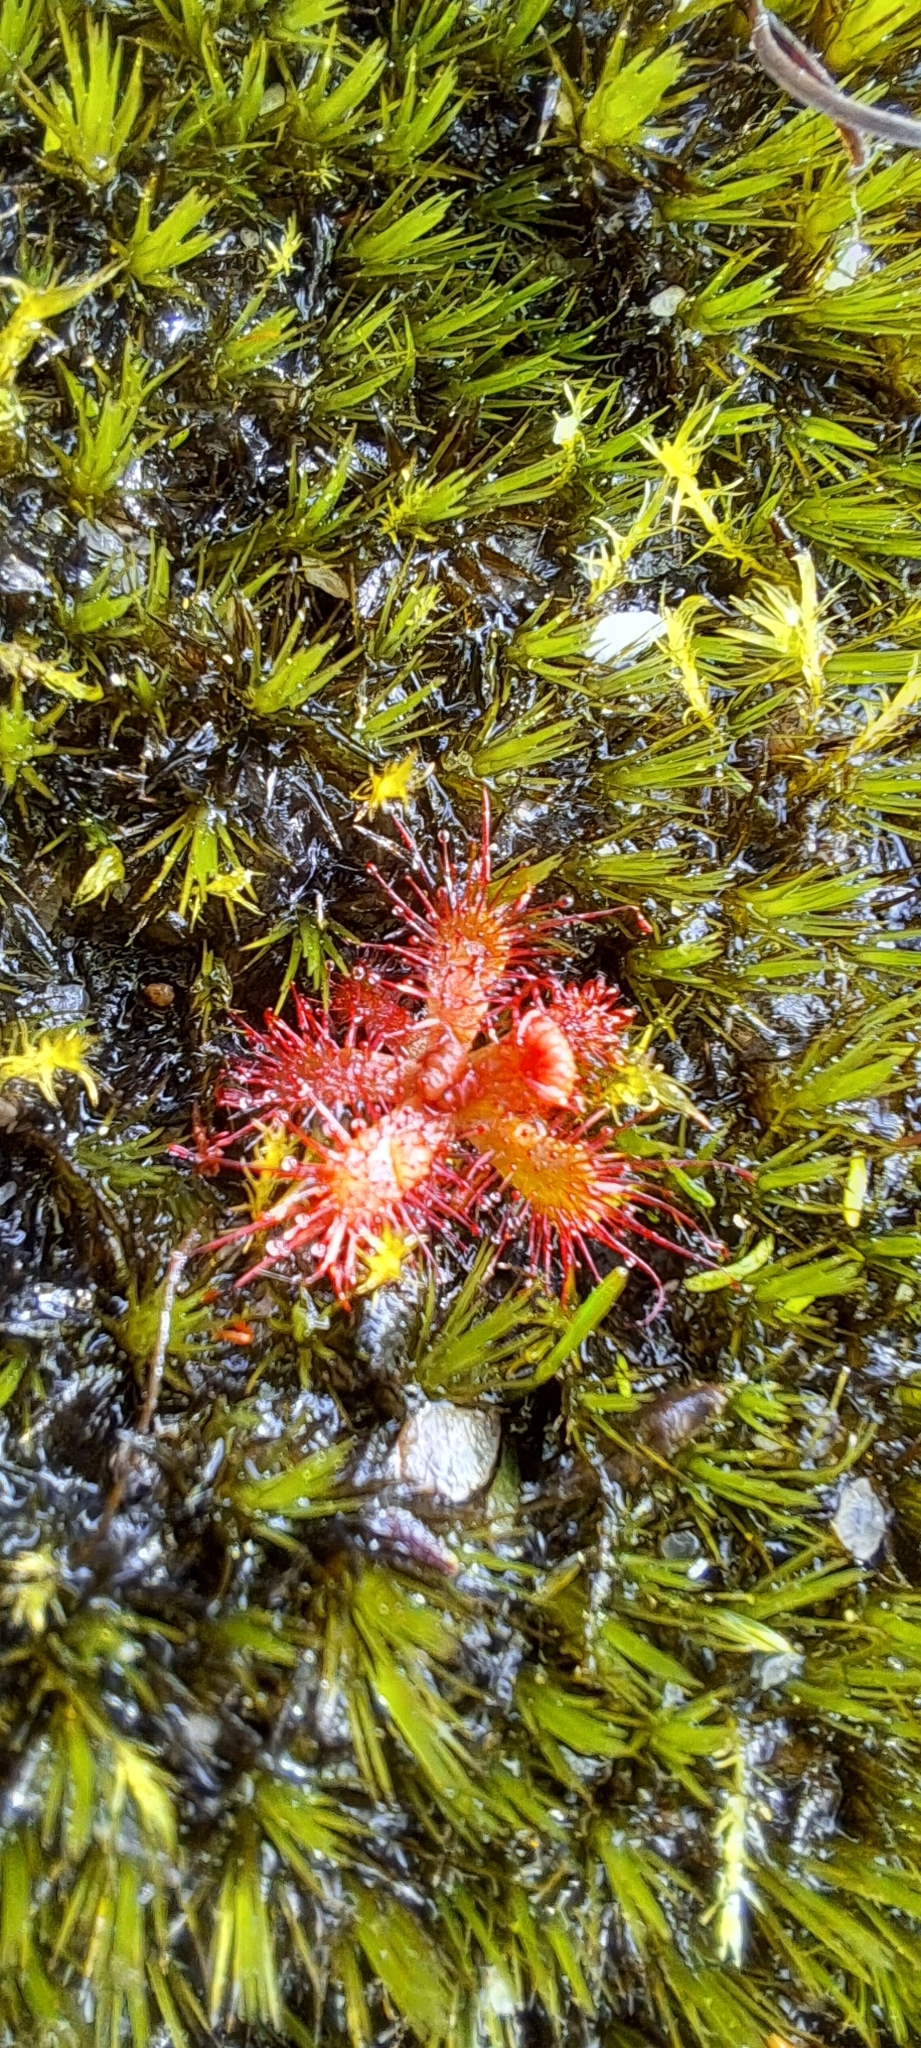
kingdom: Plantae
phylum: Tracheophyta
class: Magnoliopsida
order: Caryophyllales
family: Droseraceae
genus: Drosera
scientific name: Drosera trinervia
